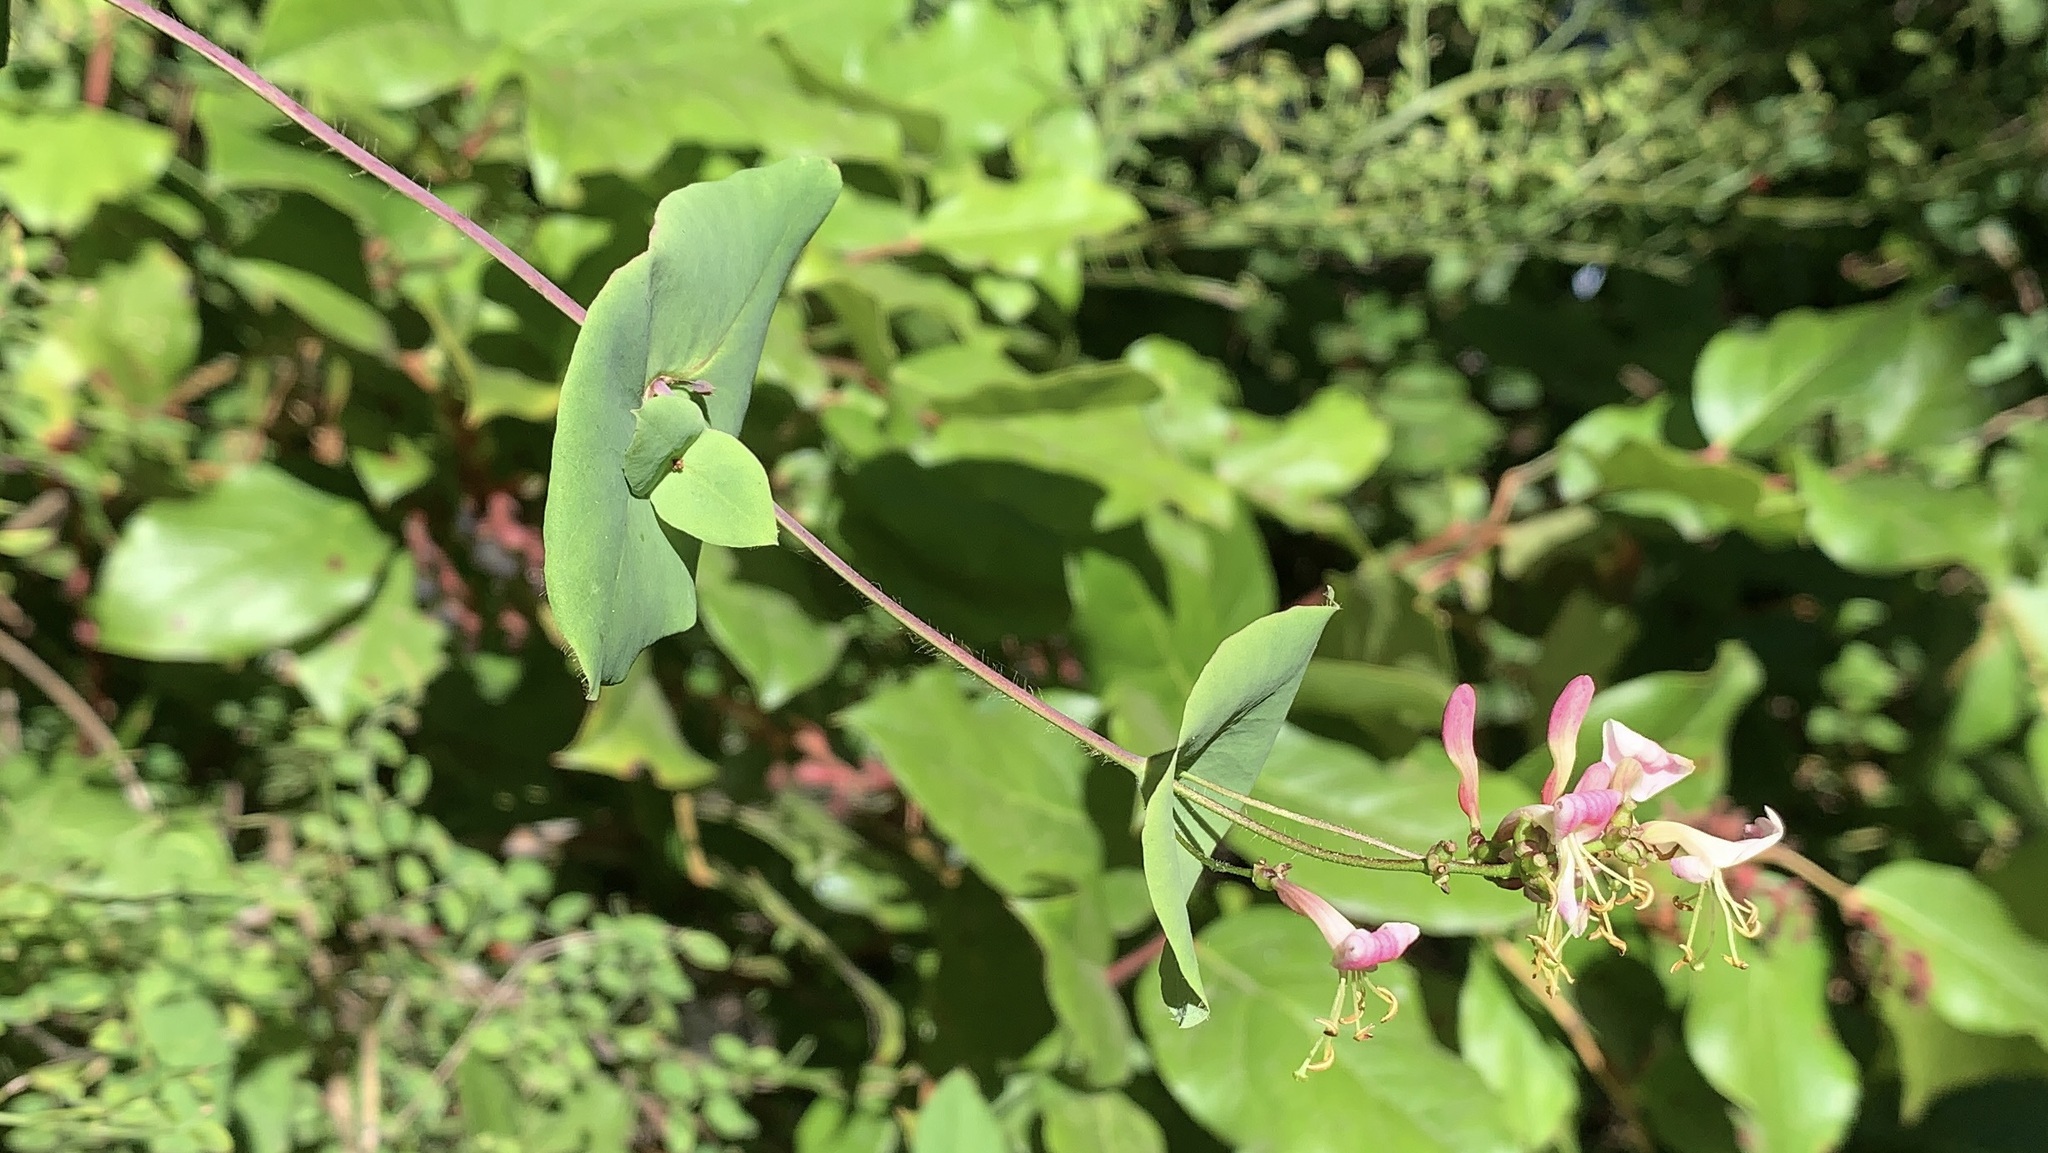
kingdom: Plantae
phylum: Tracheophyta
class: Magnoliopsida
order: Dipsacales
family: Caprifoliaceae
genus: Lonicera
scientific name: Lonicera hispidula
